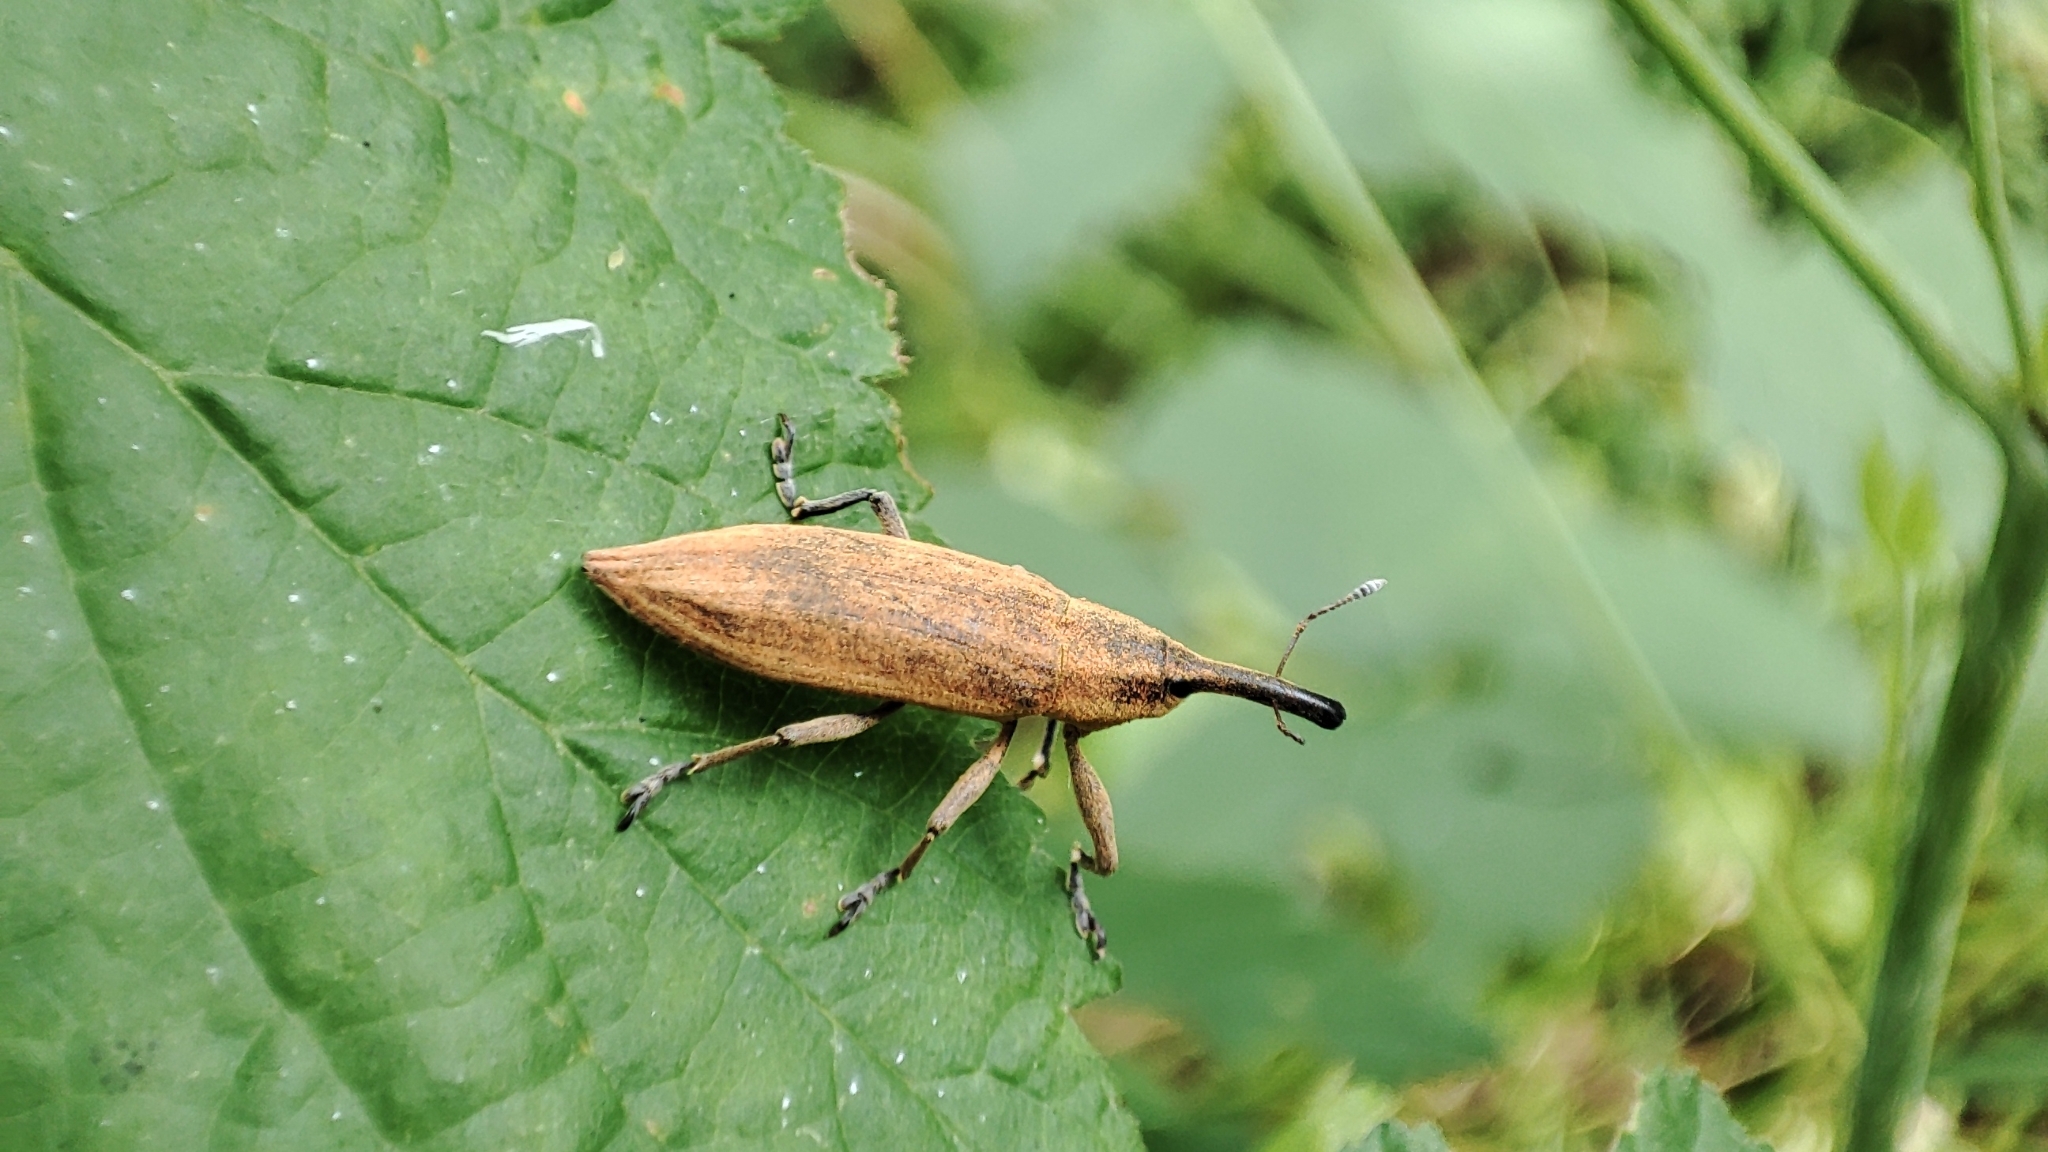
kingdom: Animalia
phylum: Arthropoda
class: Insecta
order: Coleoptera
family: Curculionidae
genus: Lixus
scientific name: Lixus iridis
